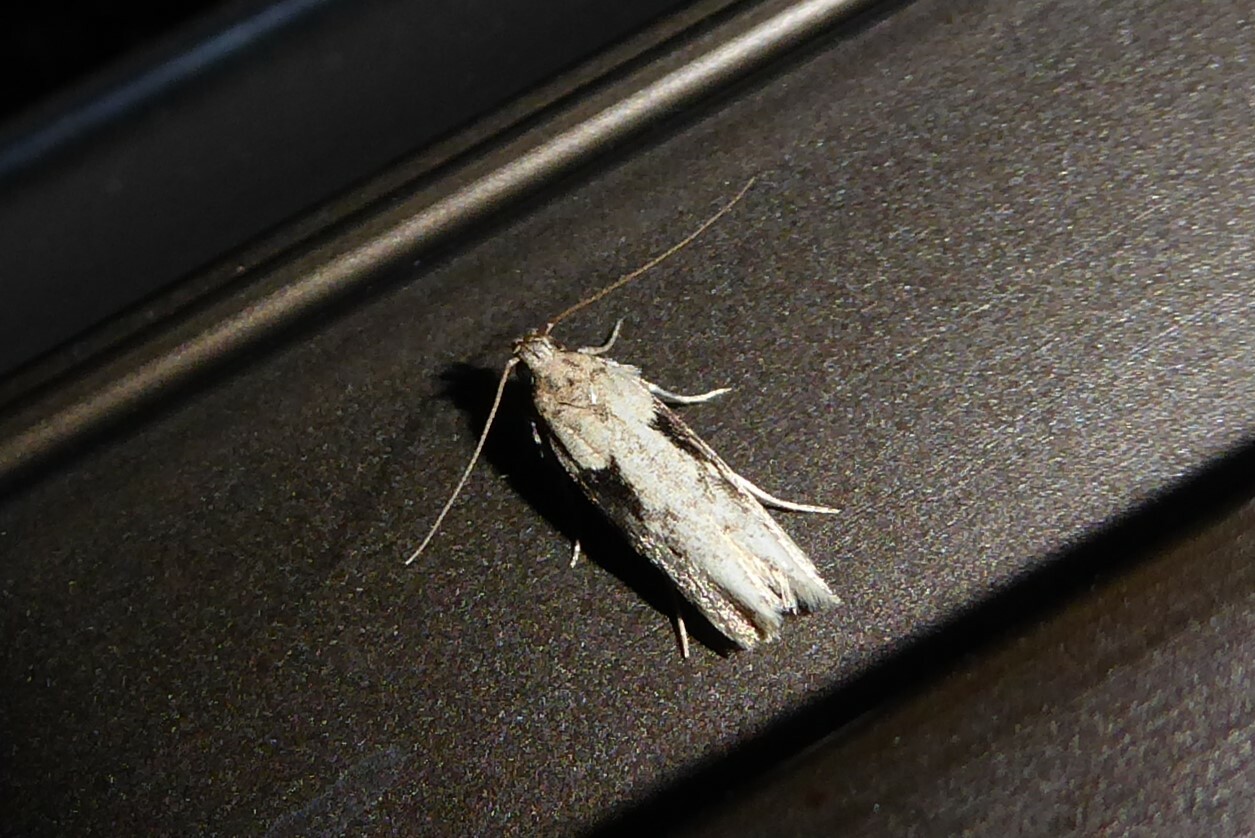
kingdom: Animalia
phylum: Arthropoda
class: Insecta
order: Lepidoptera
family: Gelechiidae
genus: Symmetrischema
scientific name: Symmetrischema tangolias
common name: Moth
